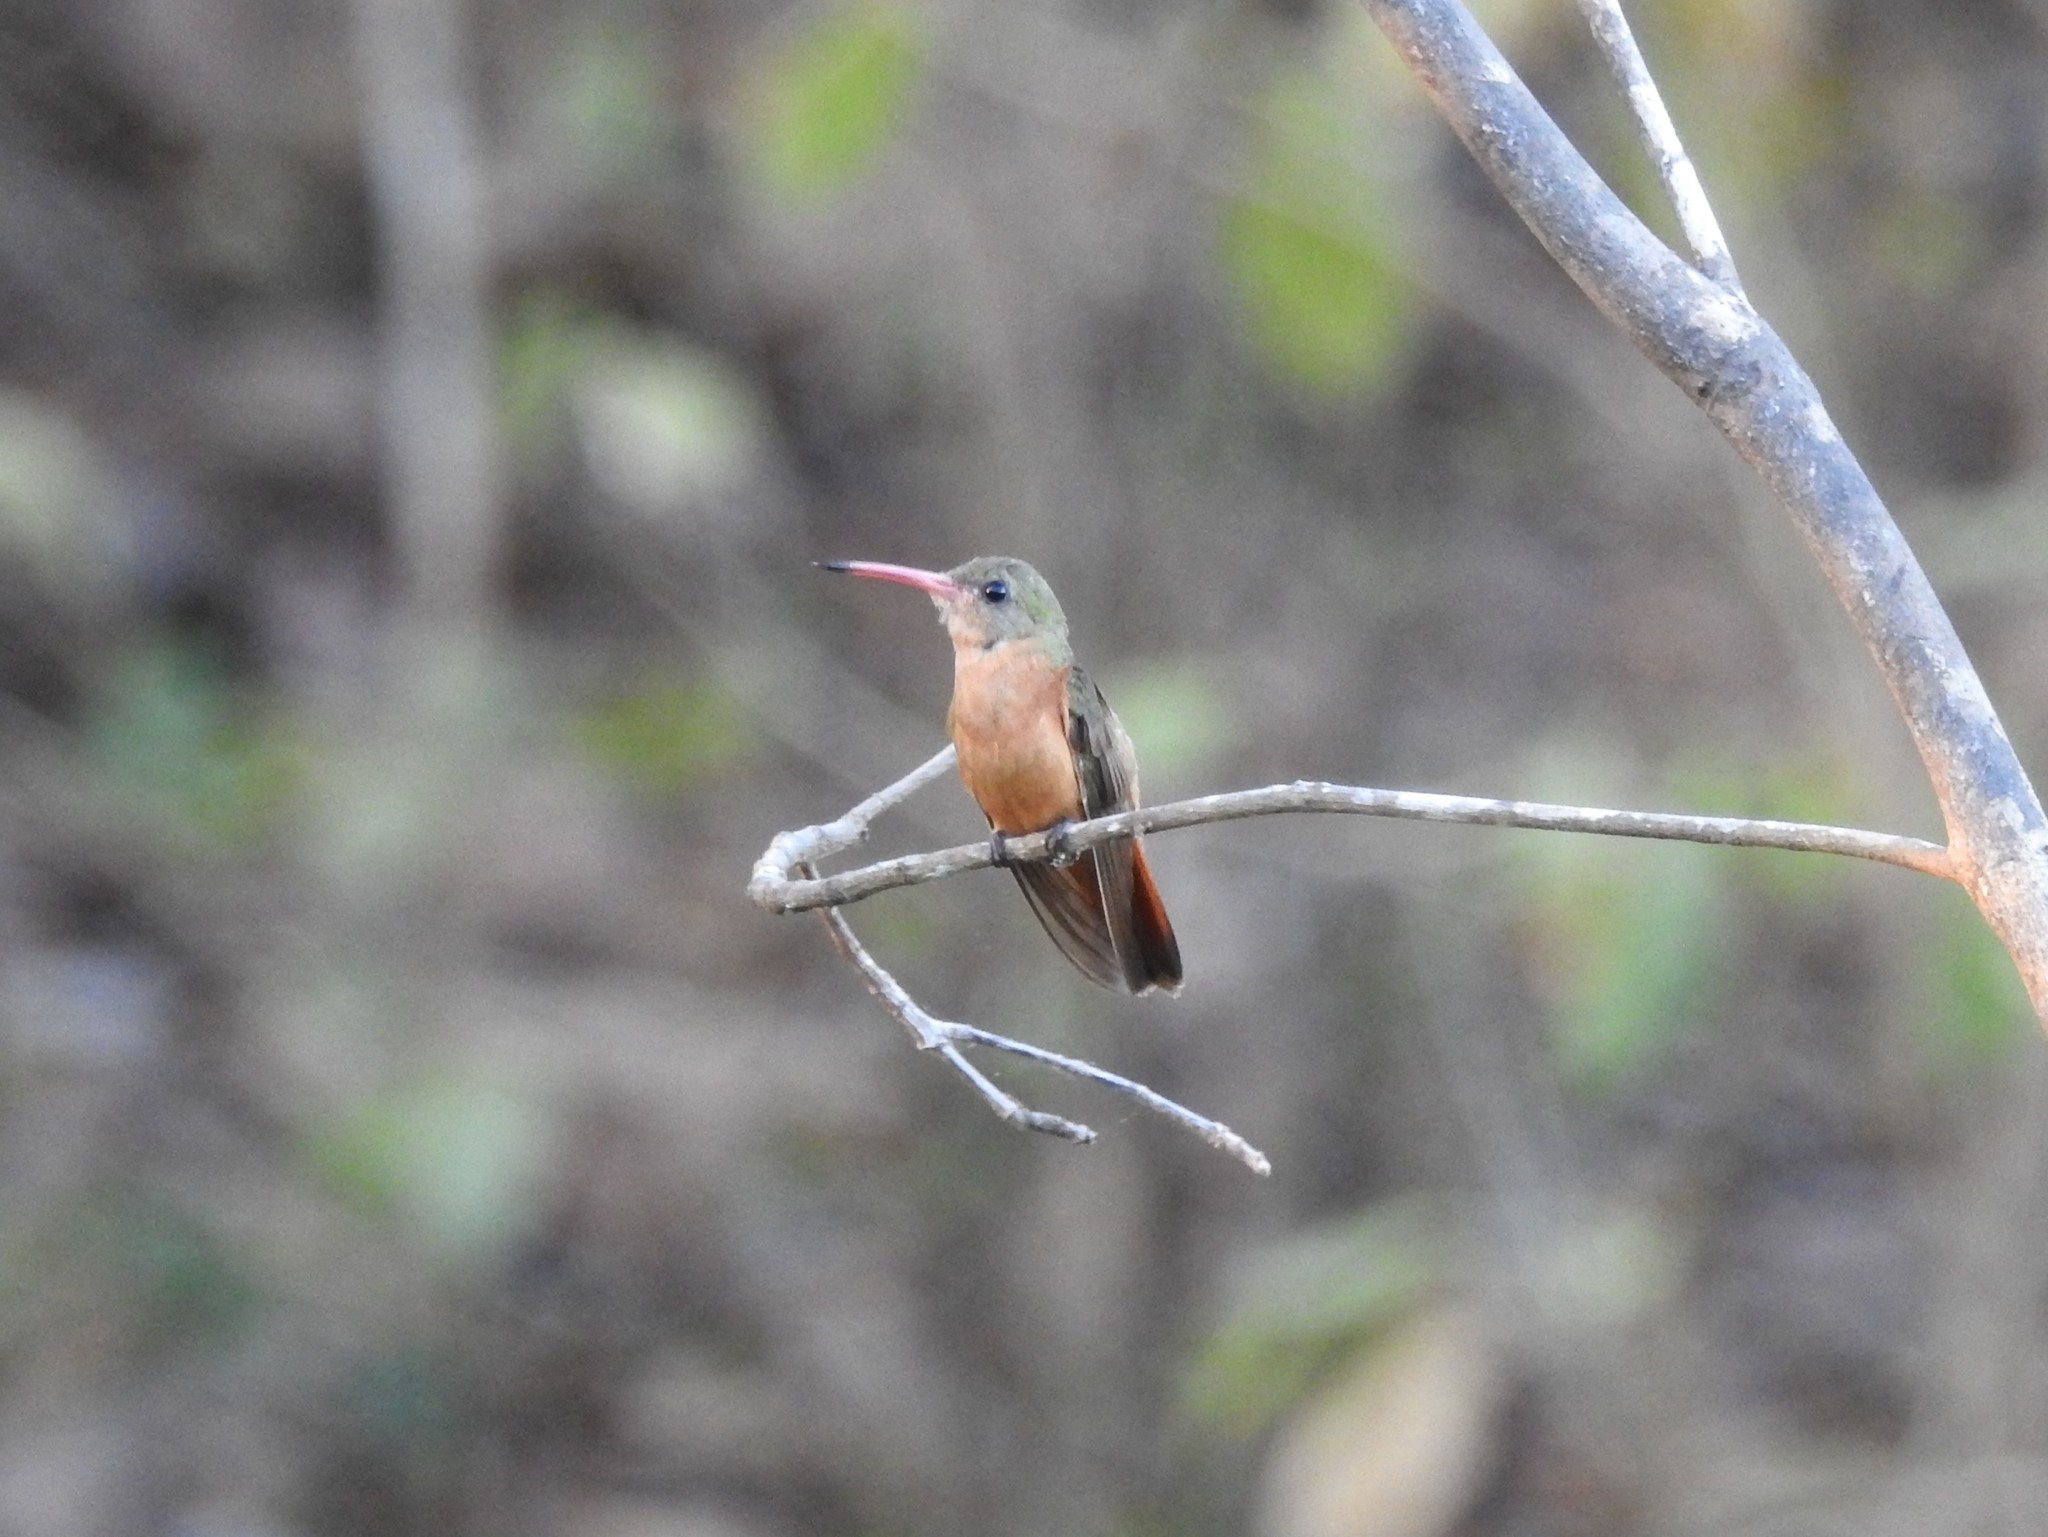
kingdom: Animalia
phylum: Chordata
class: Aves
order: Apodiformes
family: Trochilidae
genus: Amazilia
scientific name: Amazilia rutila
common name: Cinnamon hummingbird
